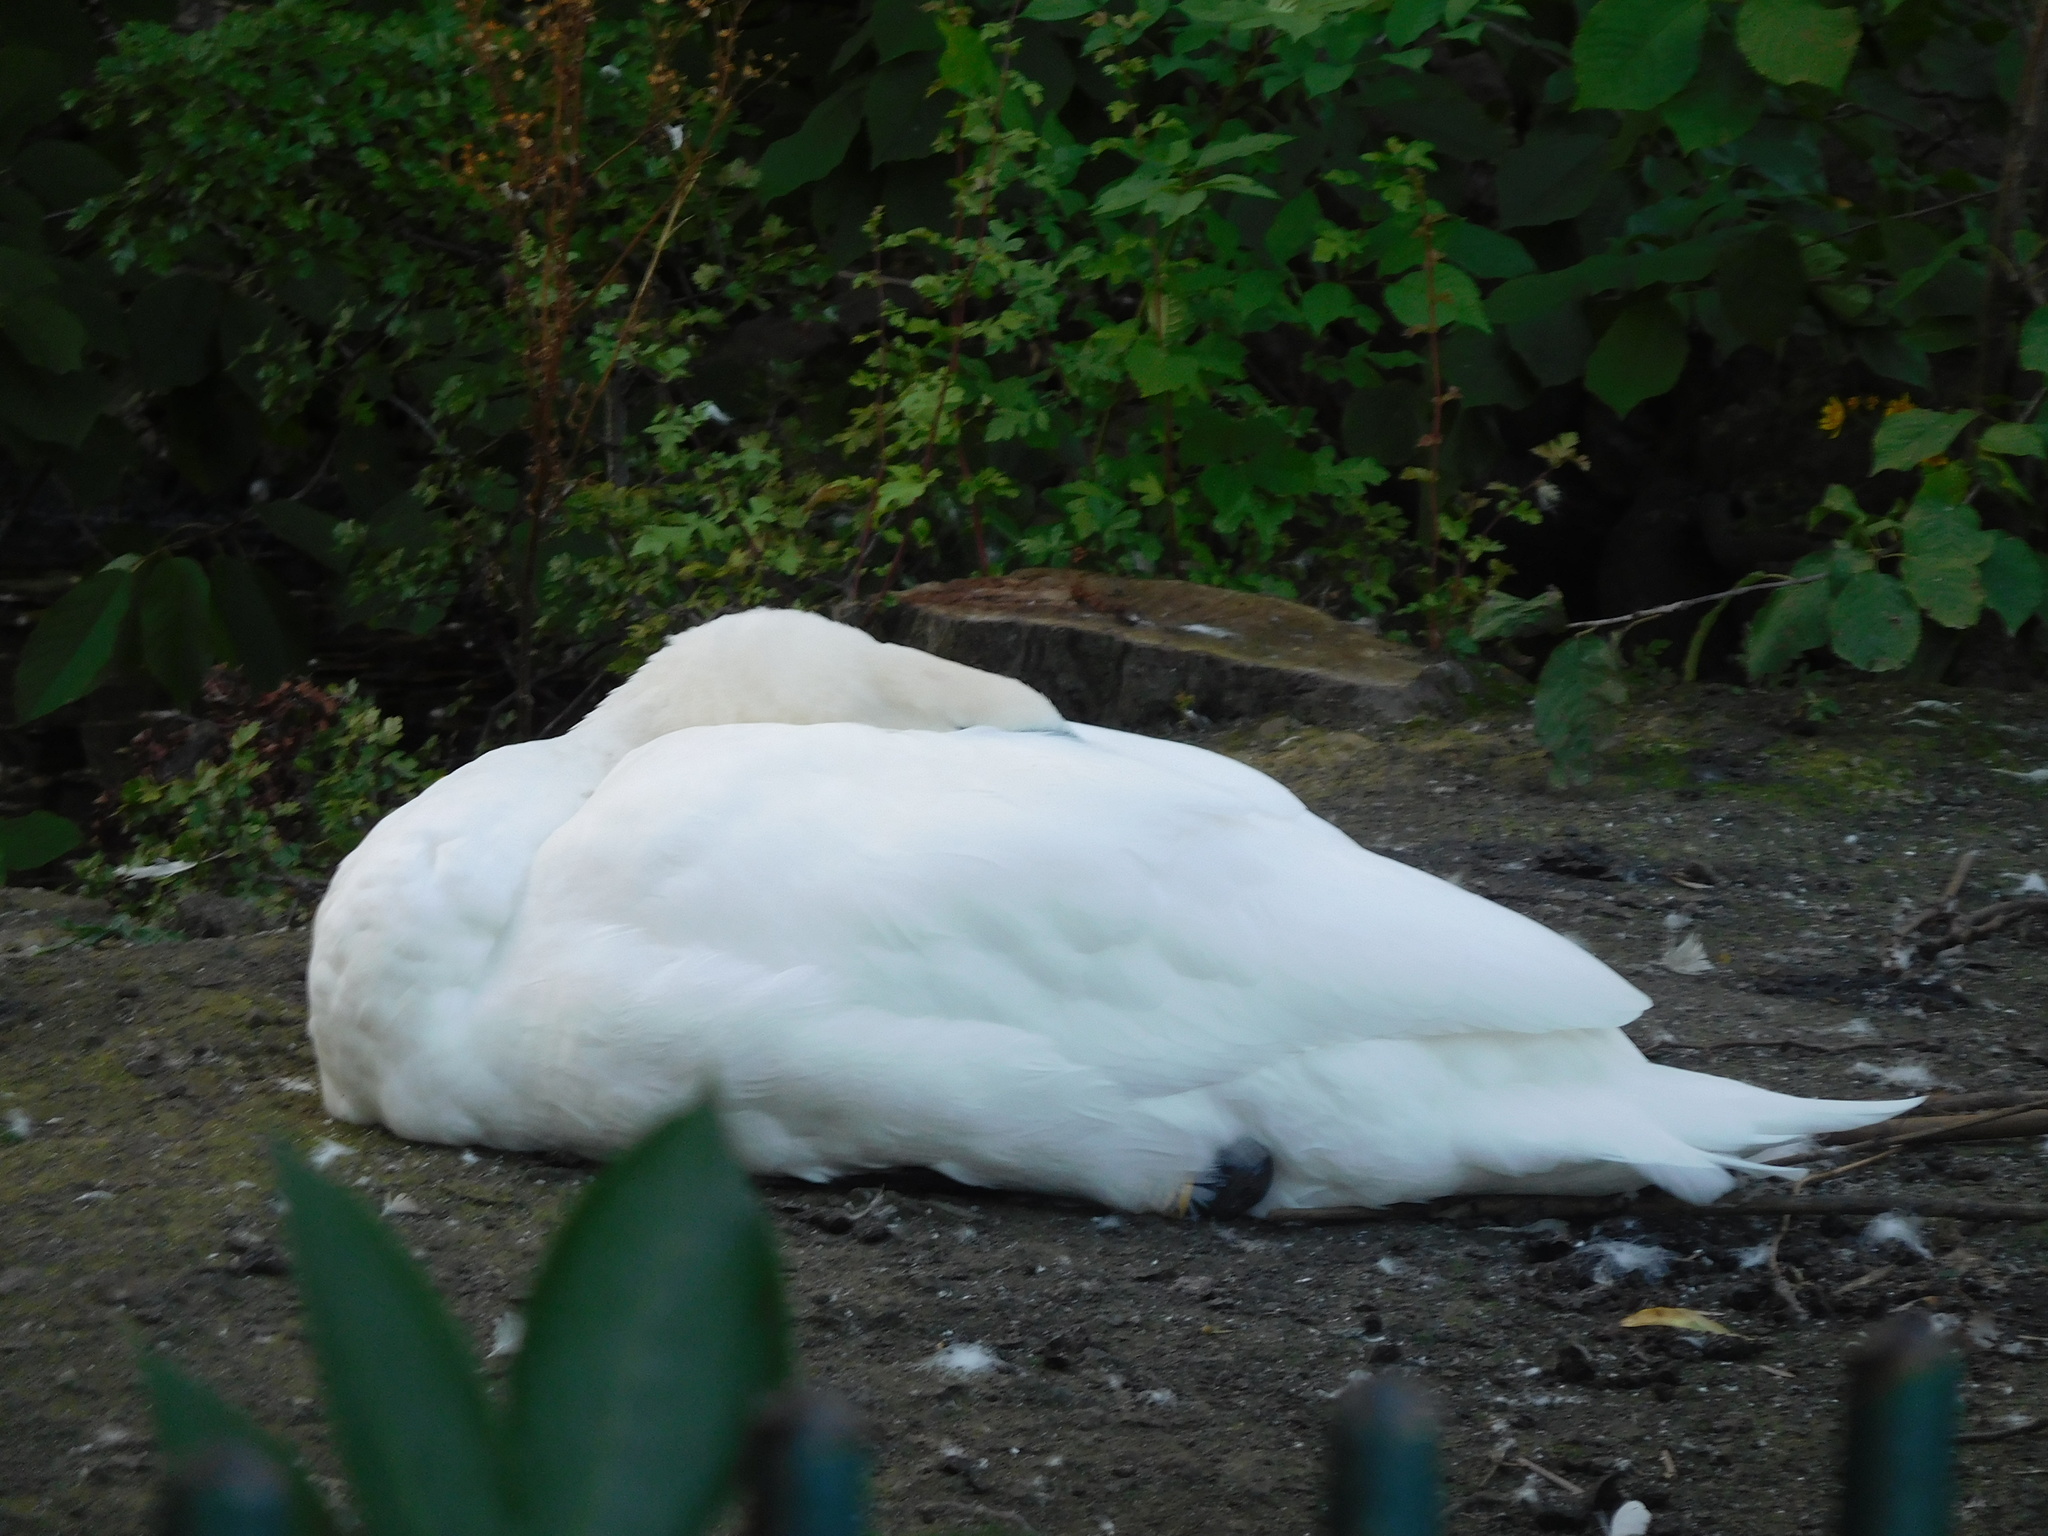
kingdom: Animalia
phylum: Chordata
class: Aves
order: Anseriformes
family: Anatidae
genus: Cygnus
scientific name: Cygnus olor
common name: Mute swan
